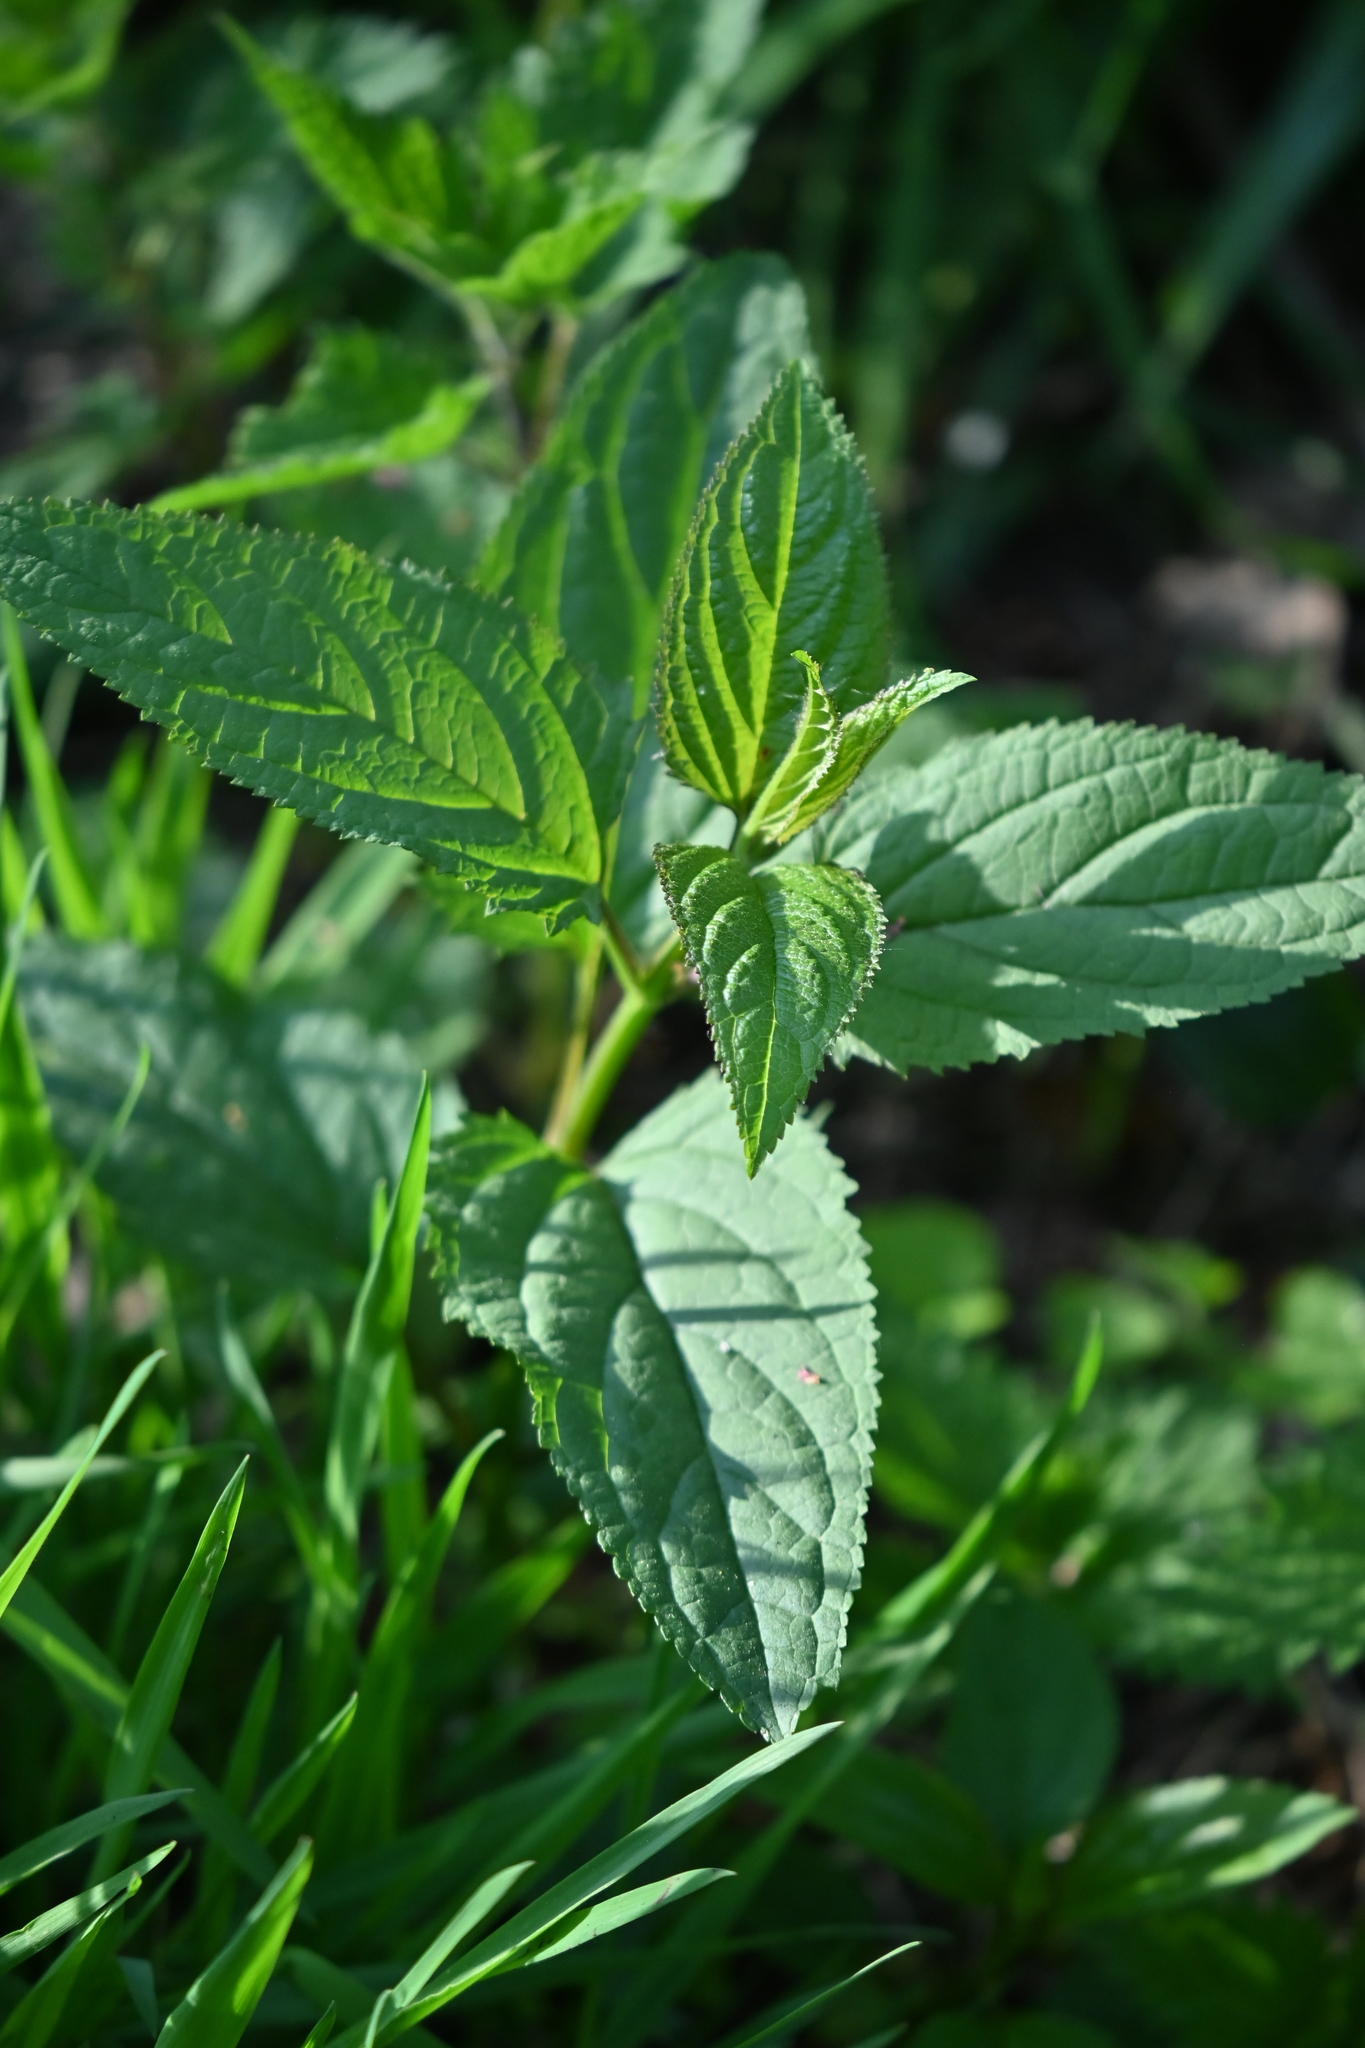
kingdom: Plantae
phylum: Tracheophyta
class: Magnoliopsida
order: Lamiales
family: Scrophulariaceae
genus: Scrophularia
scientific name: Scrophularia nodosa
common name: Common figwort
